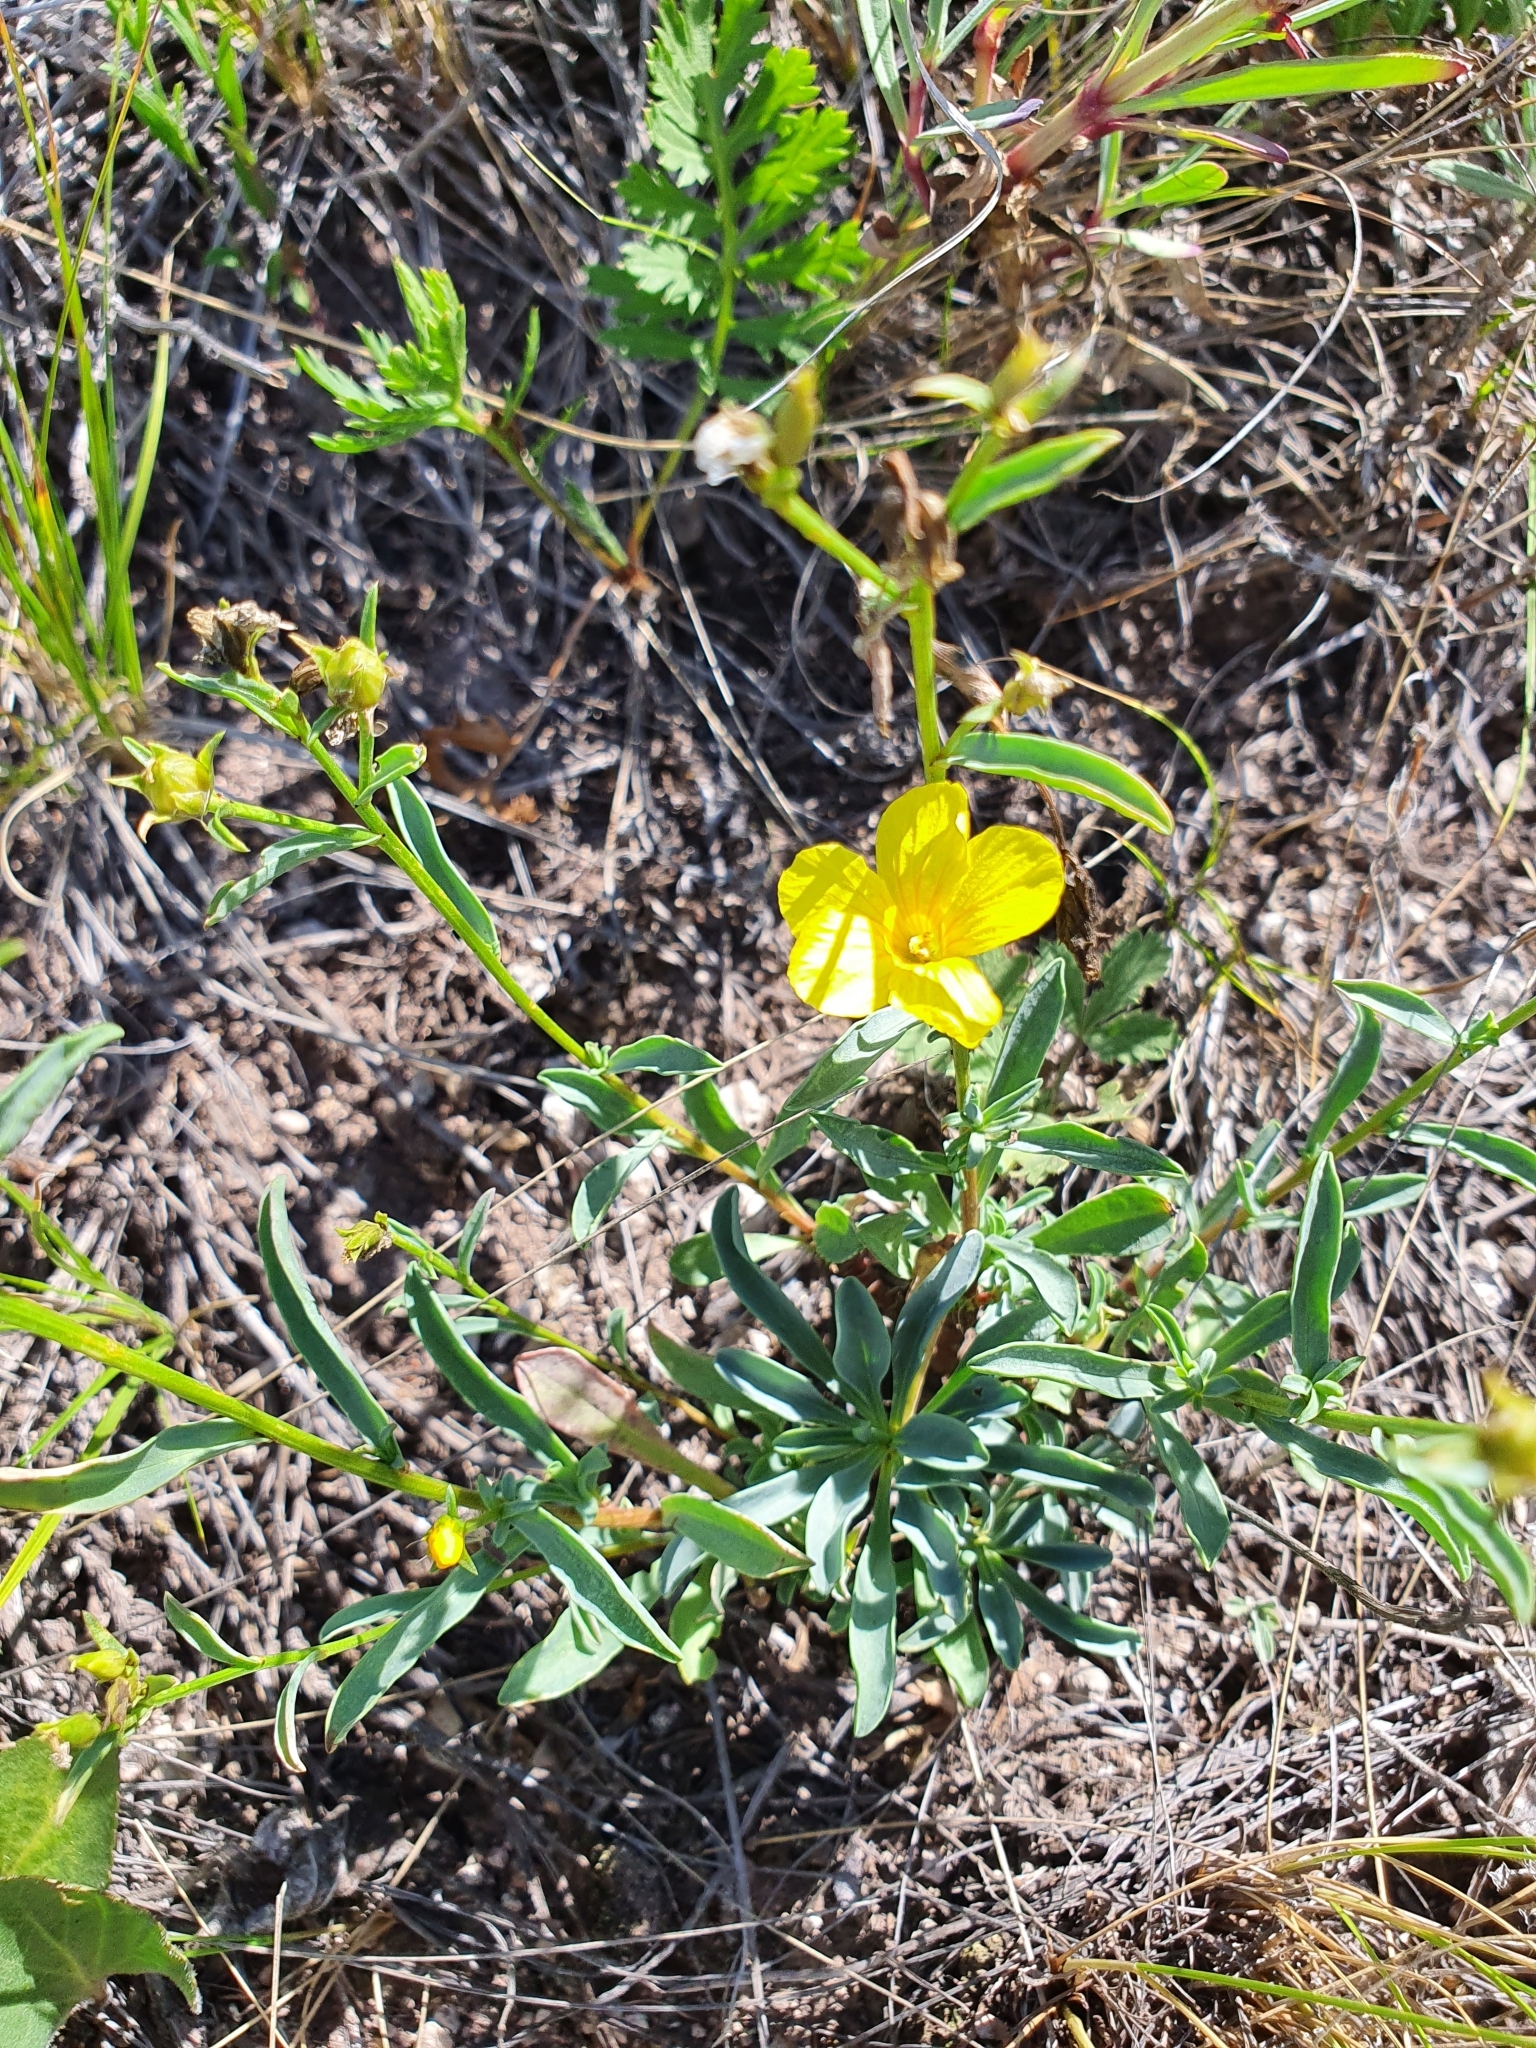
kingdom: Plantae
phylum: Tracheophyta
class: Magnoliopsida
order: Malpighiales
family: Linaceae
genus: Linum
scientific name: Linum ucranicum
